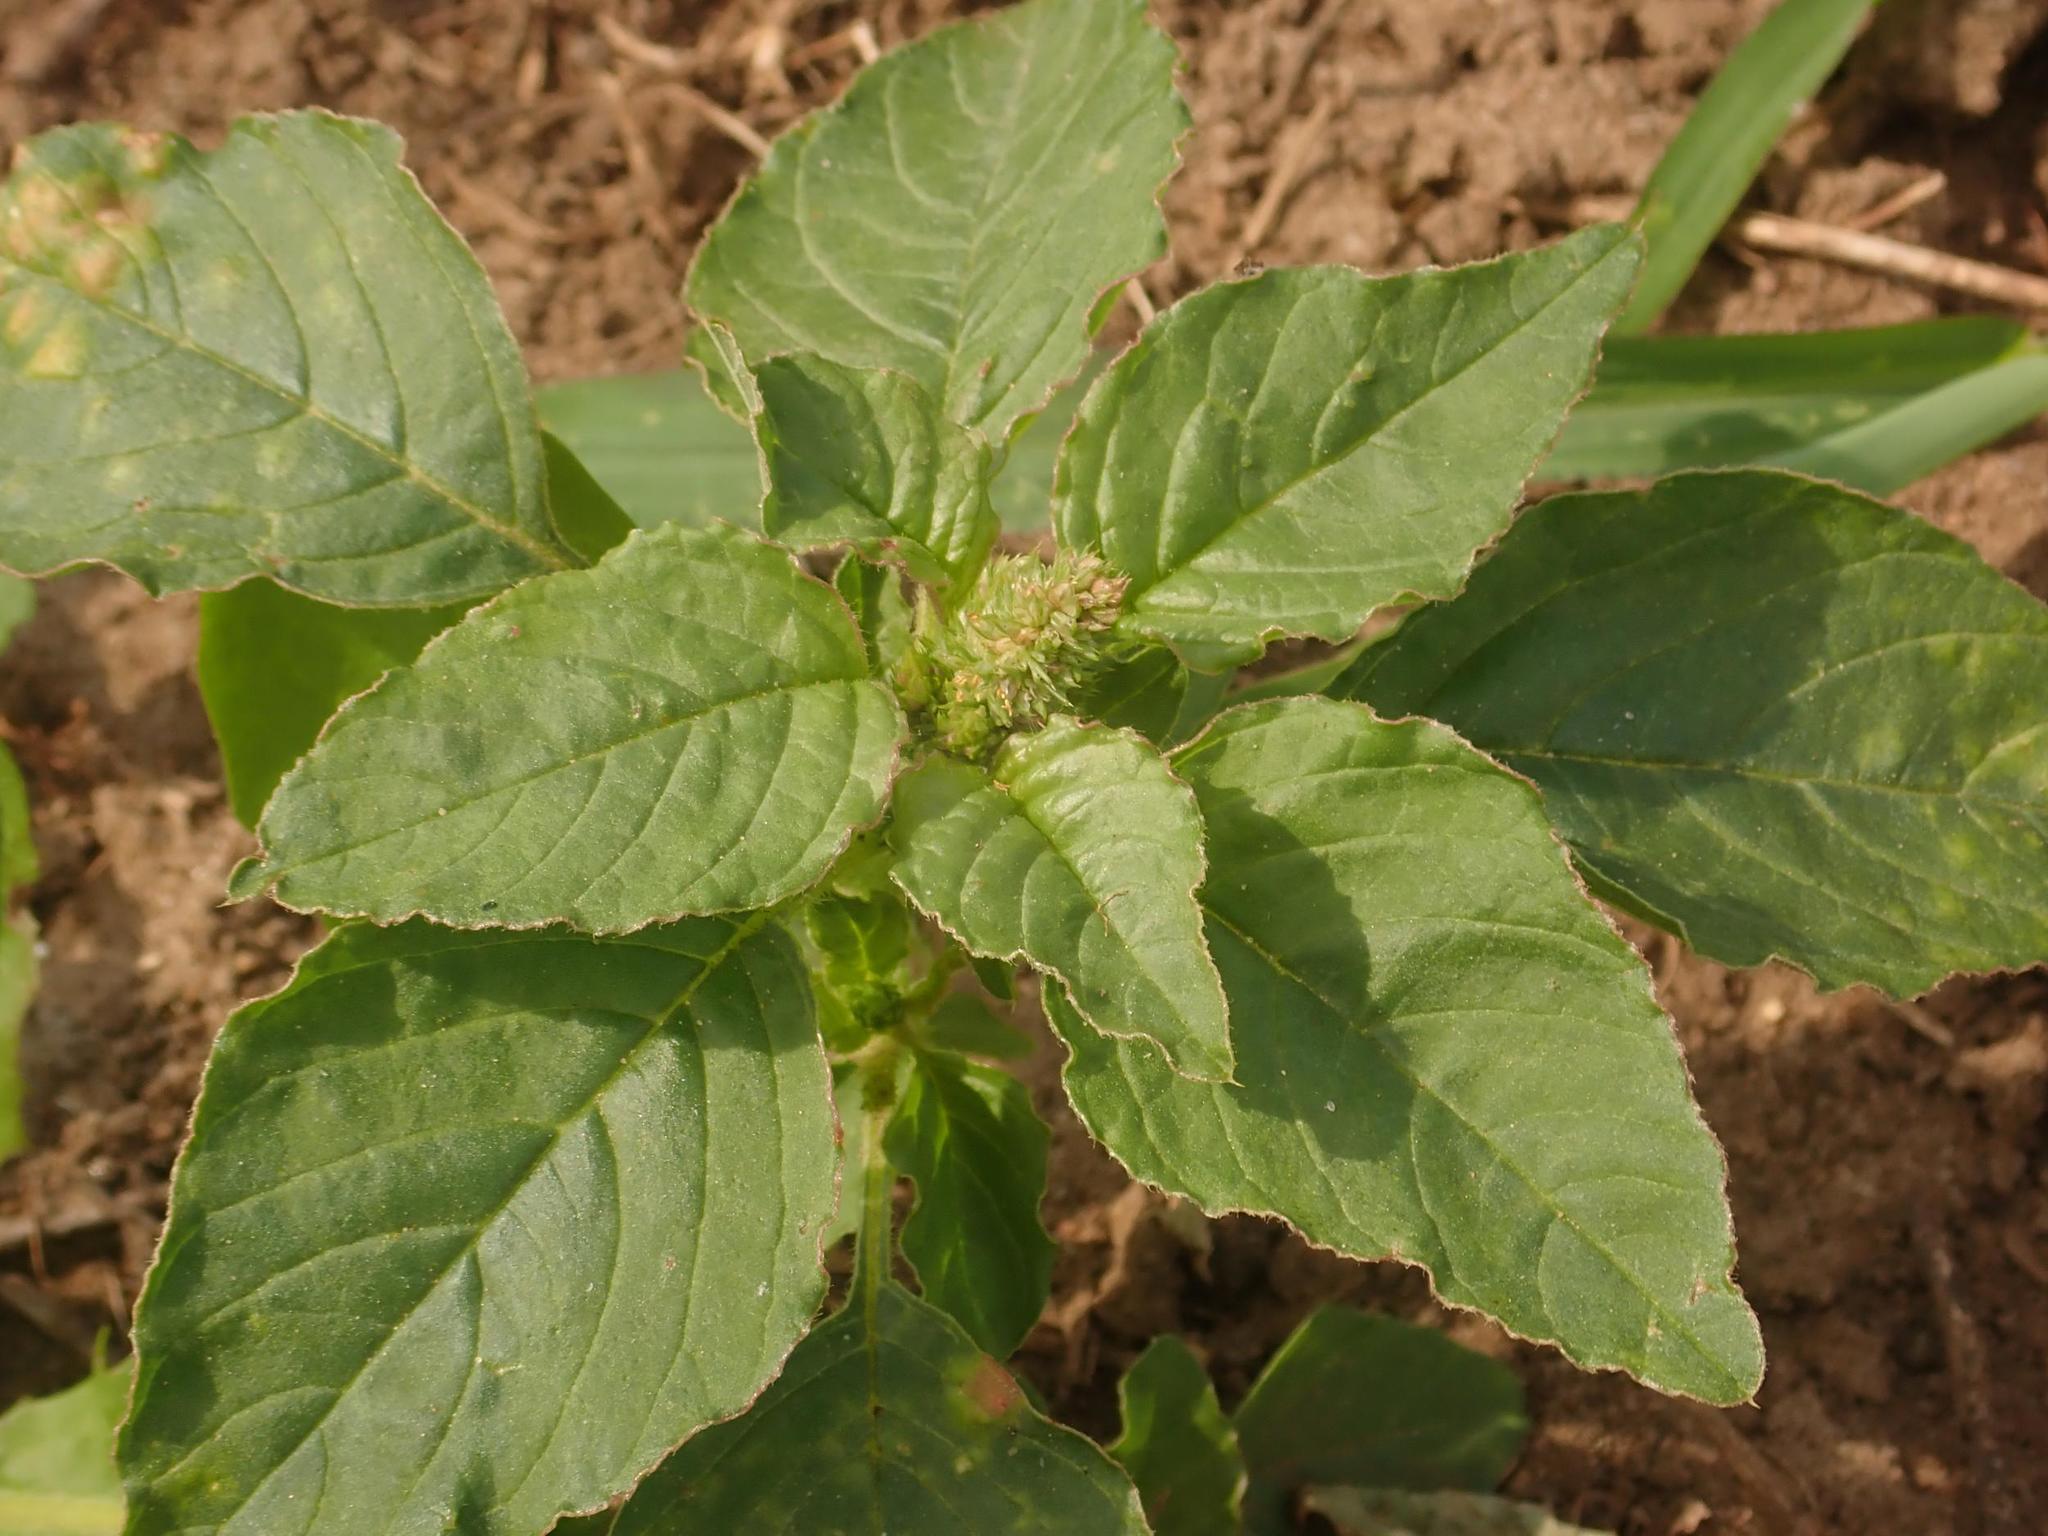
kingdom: Plantae
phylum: Tracheophyta
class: Magnoliopsida
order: Caryophyllales
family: Amaranthaceae
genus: Amaranthus
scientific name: Amaranthus retroflexus
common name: Redroot amaranth
